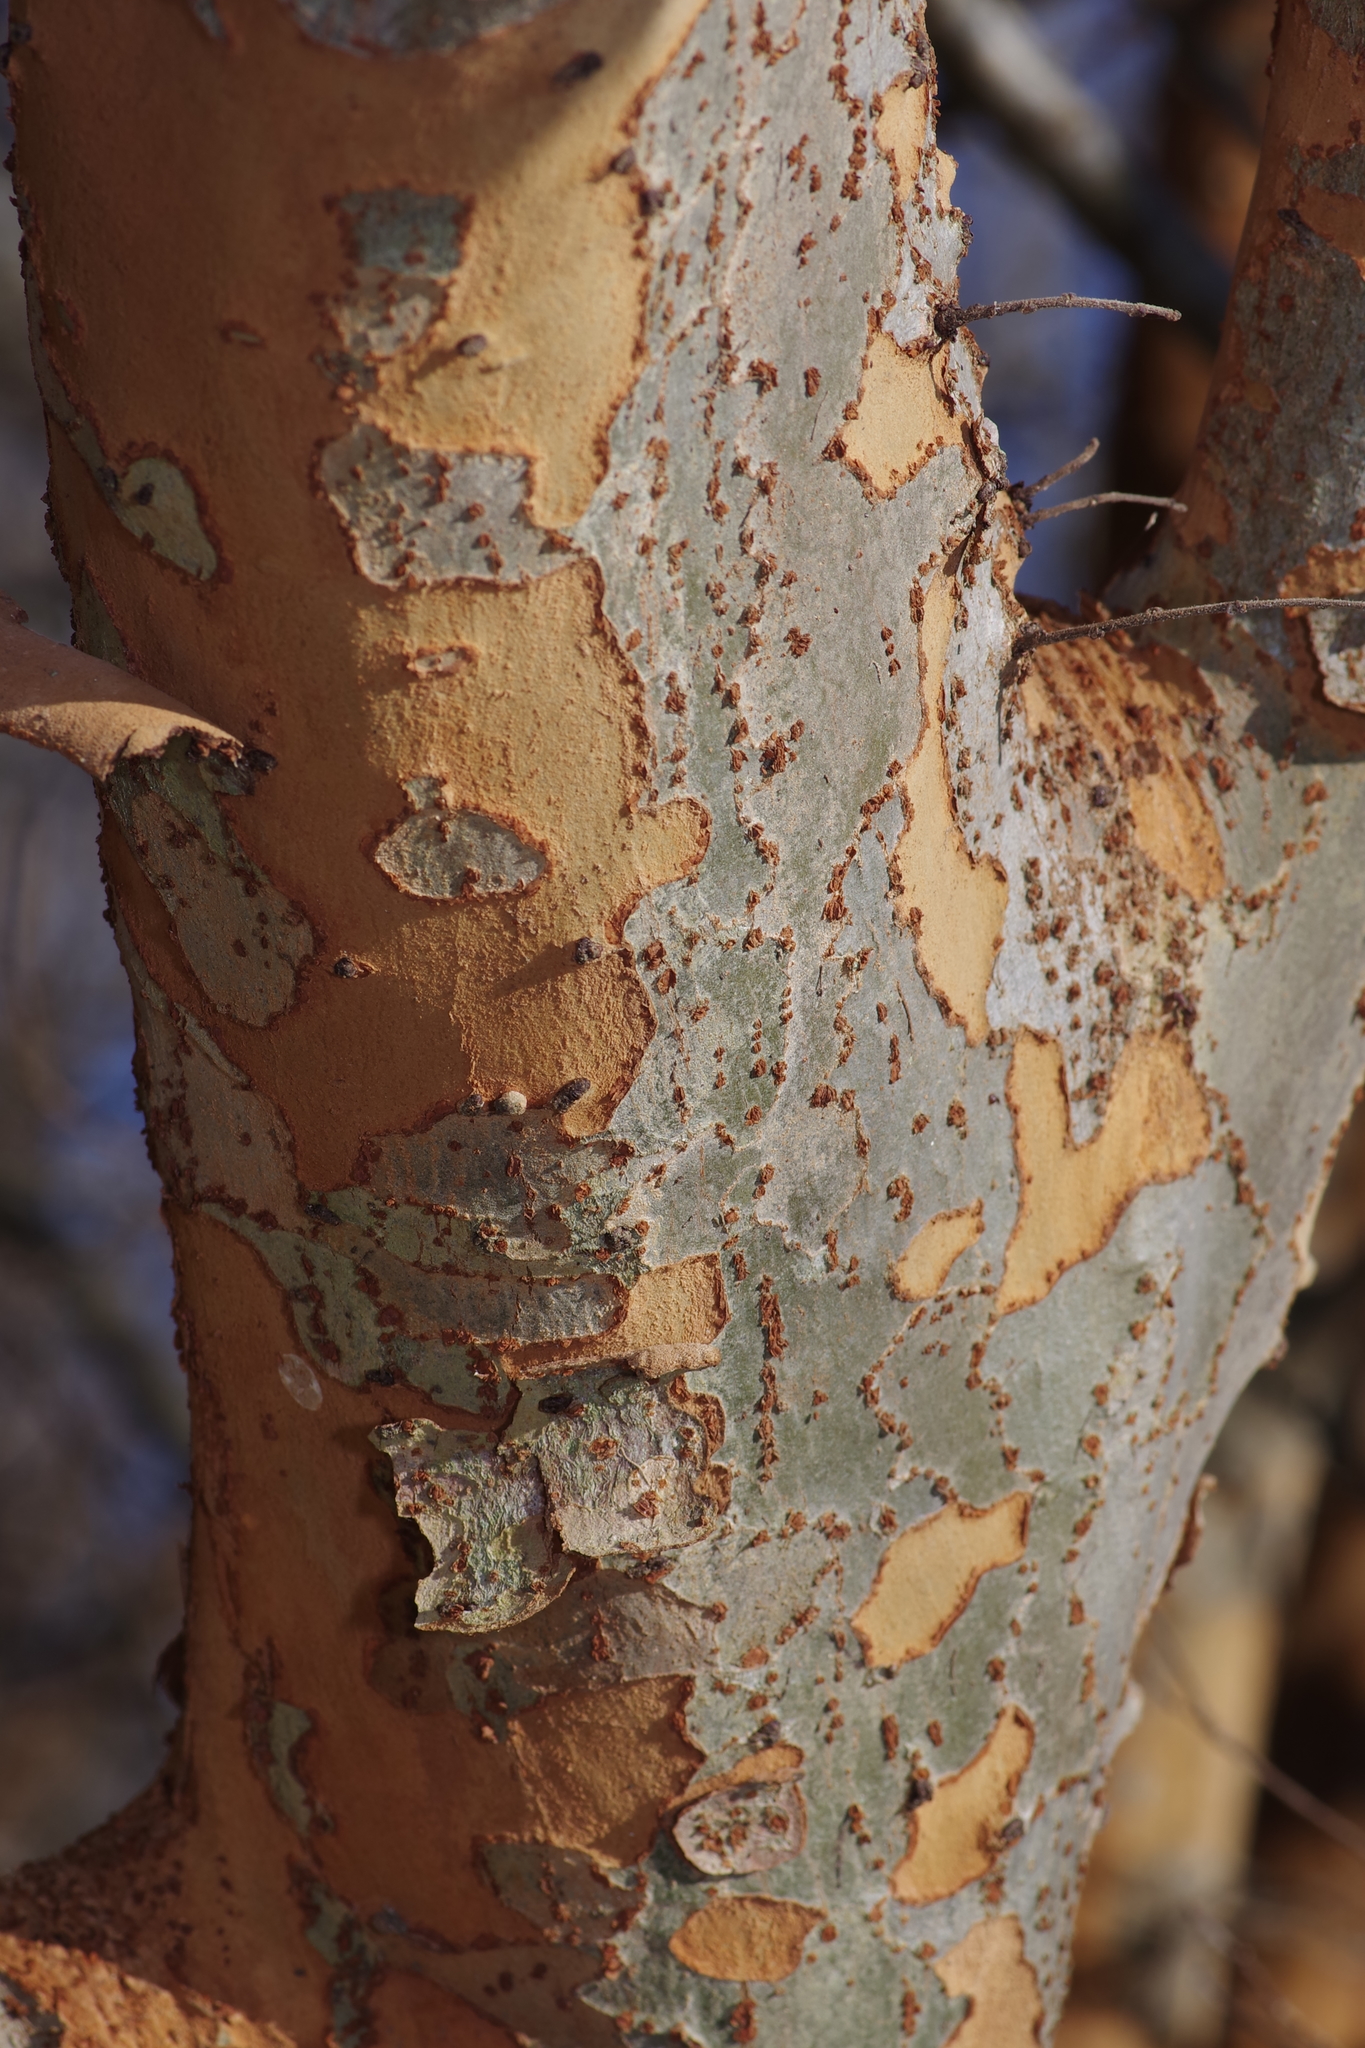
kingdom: Plantae
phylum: Tracheophyta
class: Magnoliopsida
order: Rosales
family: Ulmaceae
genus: Ulmus
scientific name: Ulmus parvifolia
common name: Chinese elm
